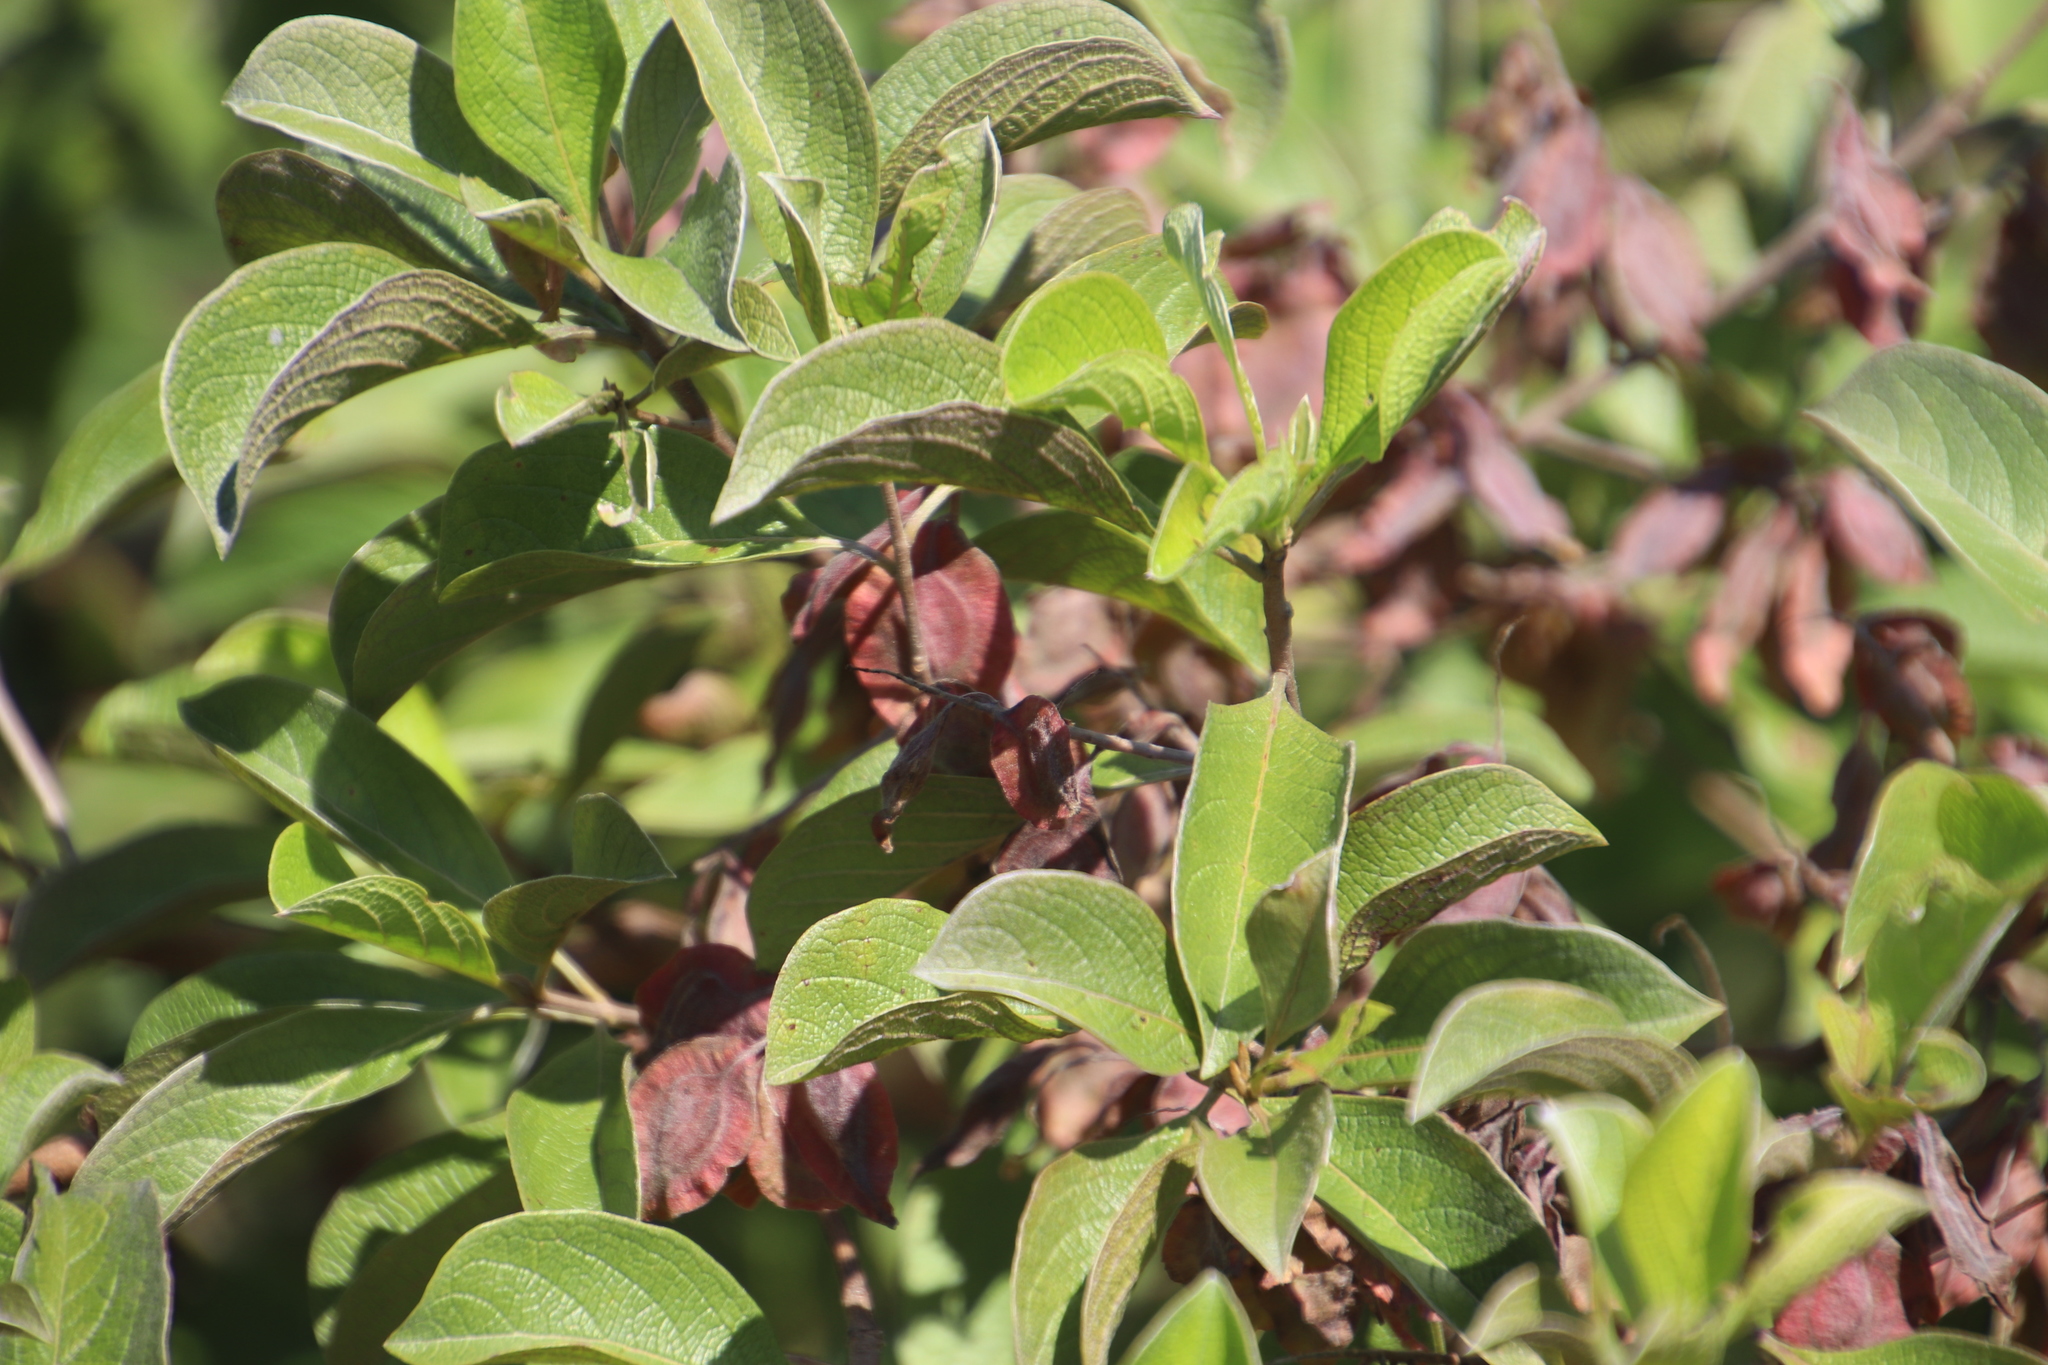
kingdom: Plantae
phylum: Tracheophyta
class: Magnoliopsida
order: Myrtales
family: Combretaceae
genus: Terminalia
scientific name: Terminalia phanerophlebia
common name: Lebombo cluster-leaf
